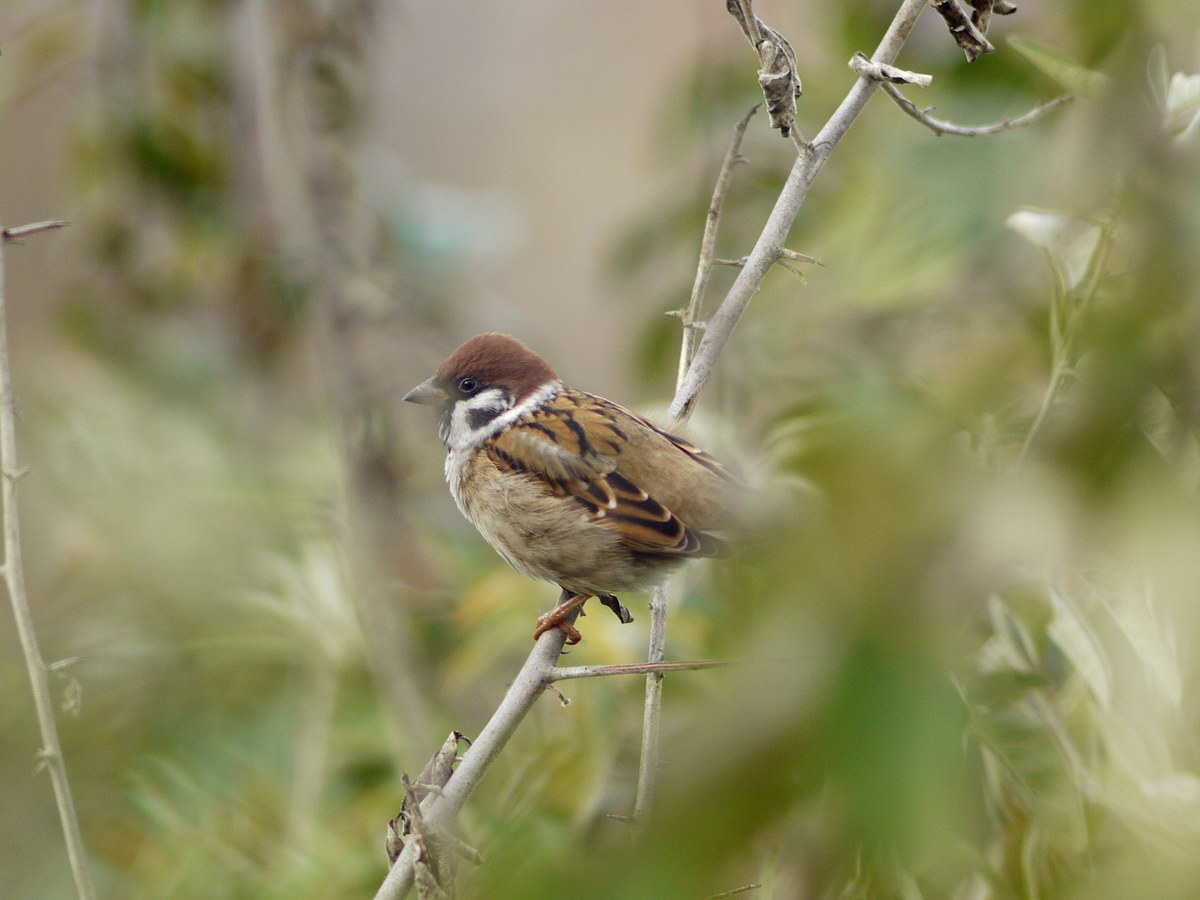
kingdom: Animalia
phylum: Chordata
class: Aves
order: Passeriformes
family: Passeridae
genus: Passer
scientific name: Passer montanus
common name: Eurasian tree sparrow
